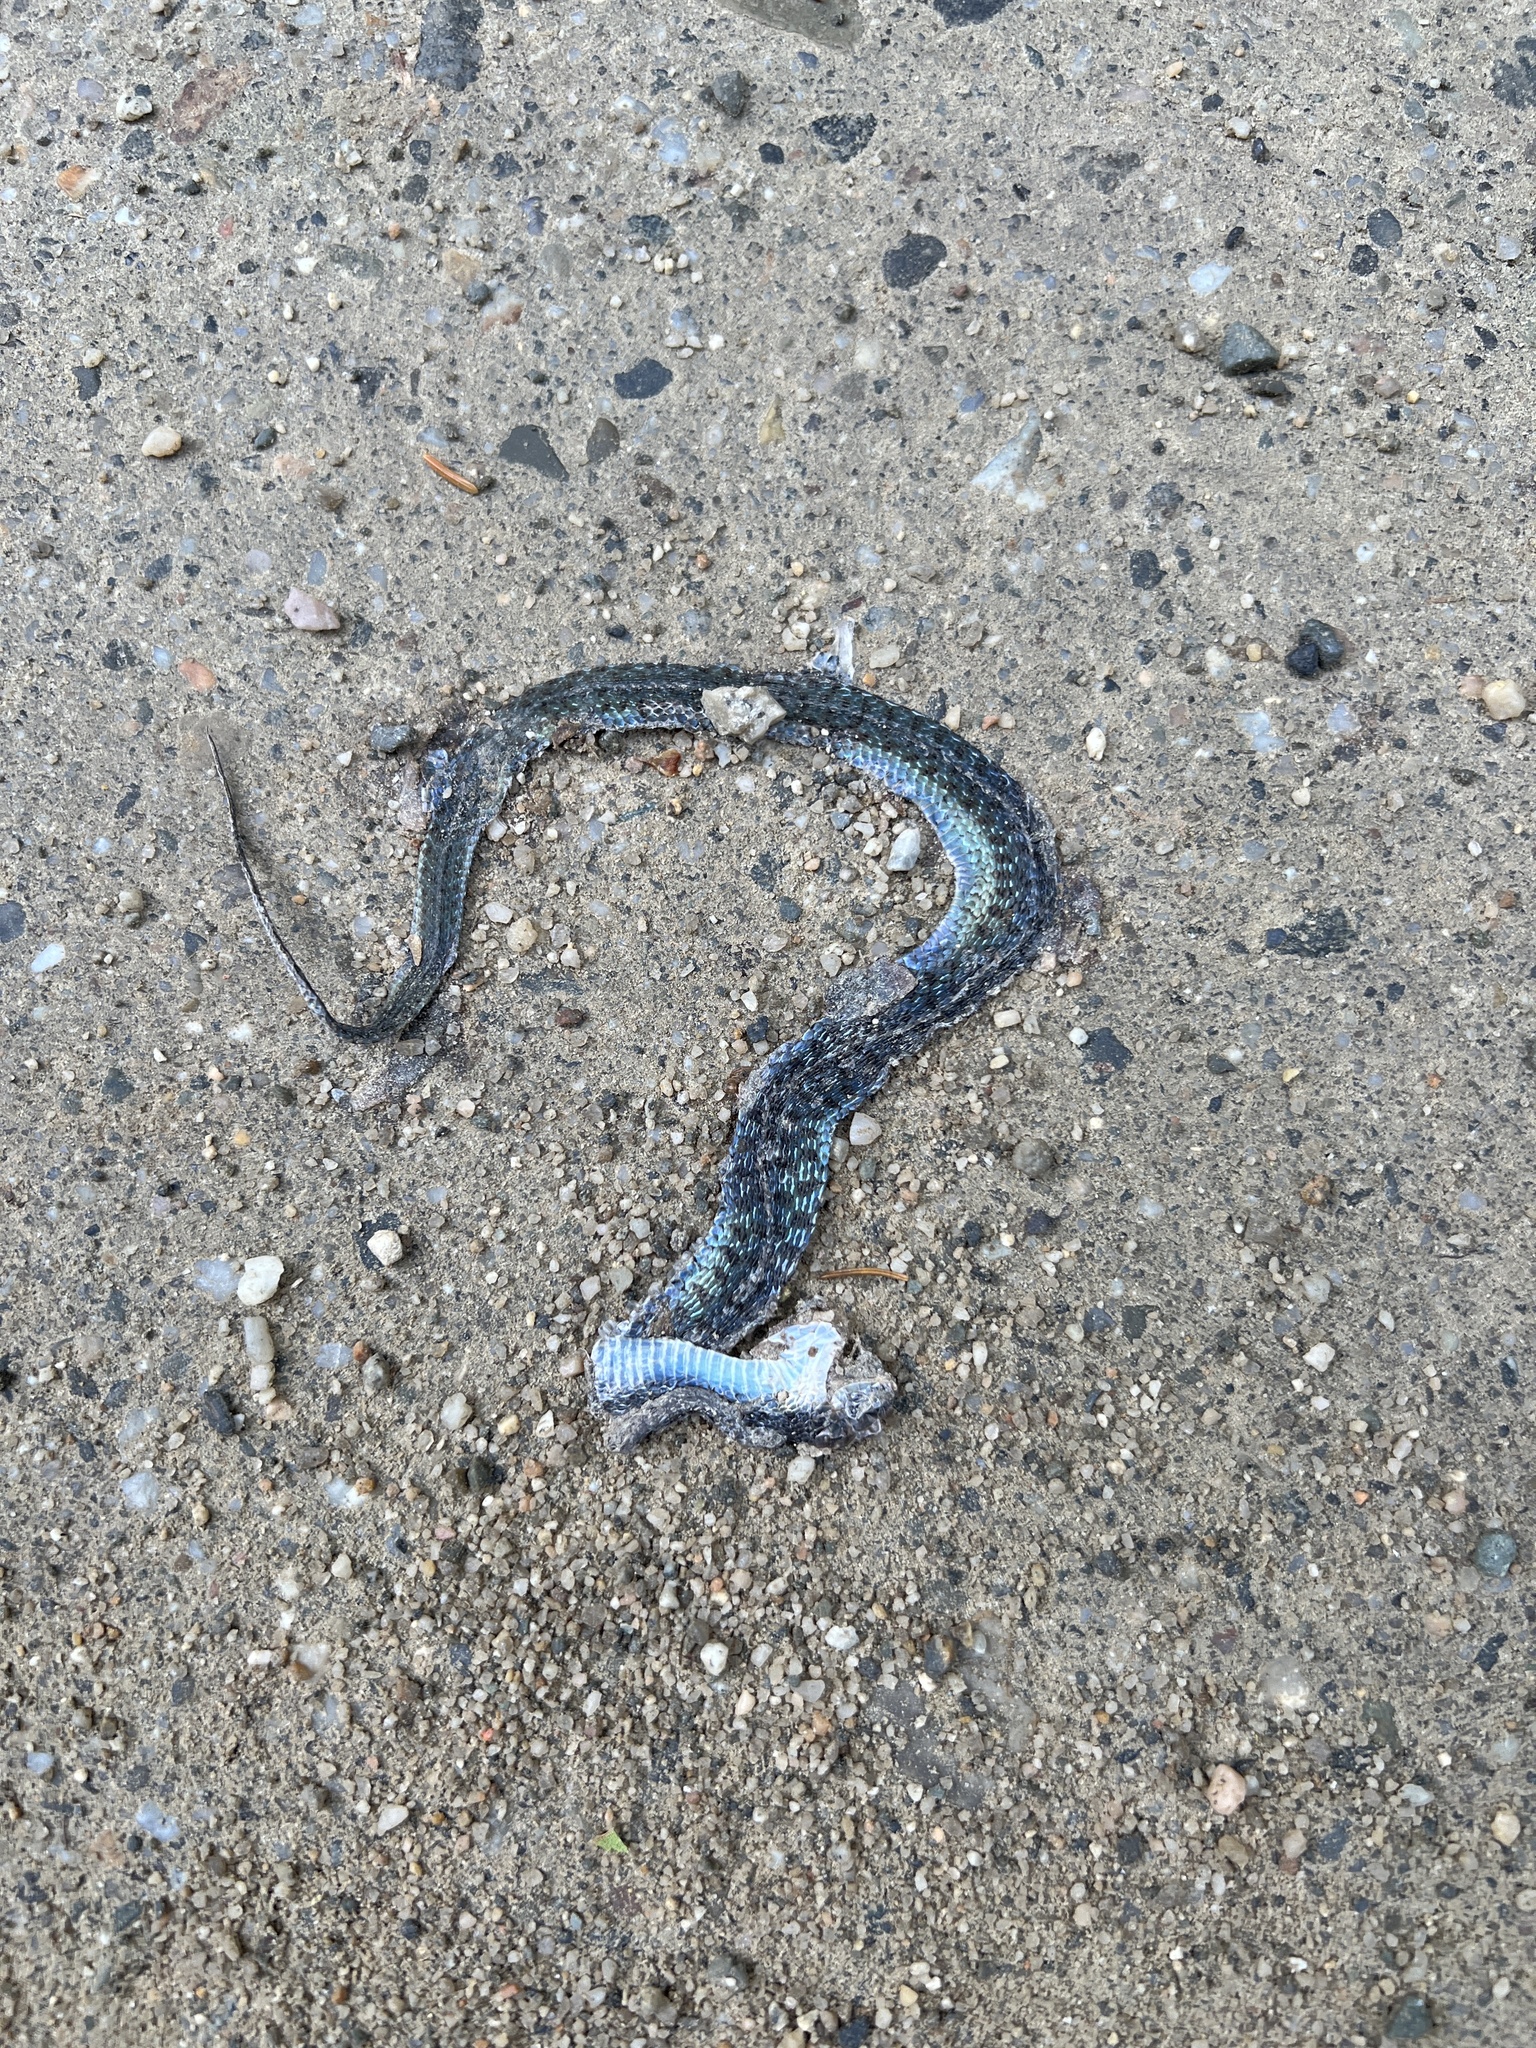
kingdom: Animalia
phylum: Chordata
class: Squamata
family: Colubridae
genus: Thamnophis
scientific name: Thamnophis sirtalis
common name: Common garter snake
